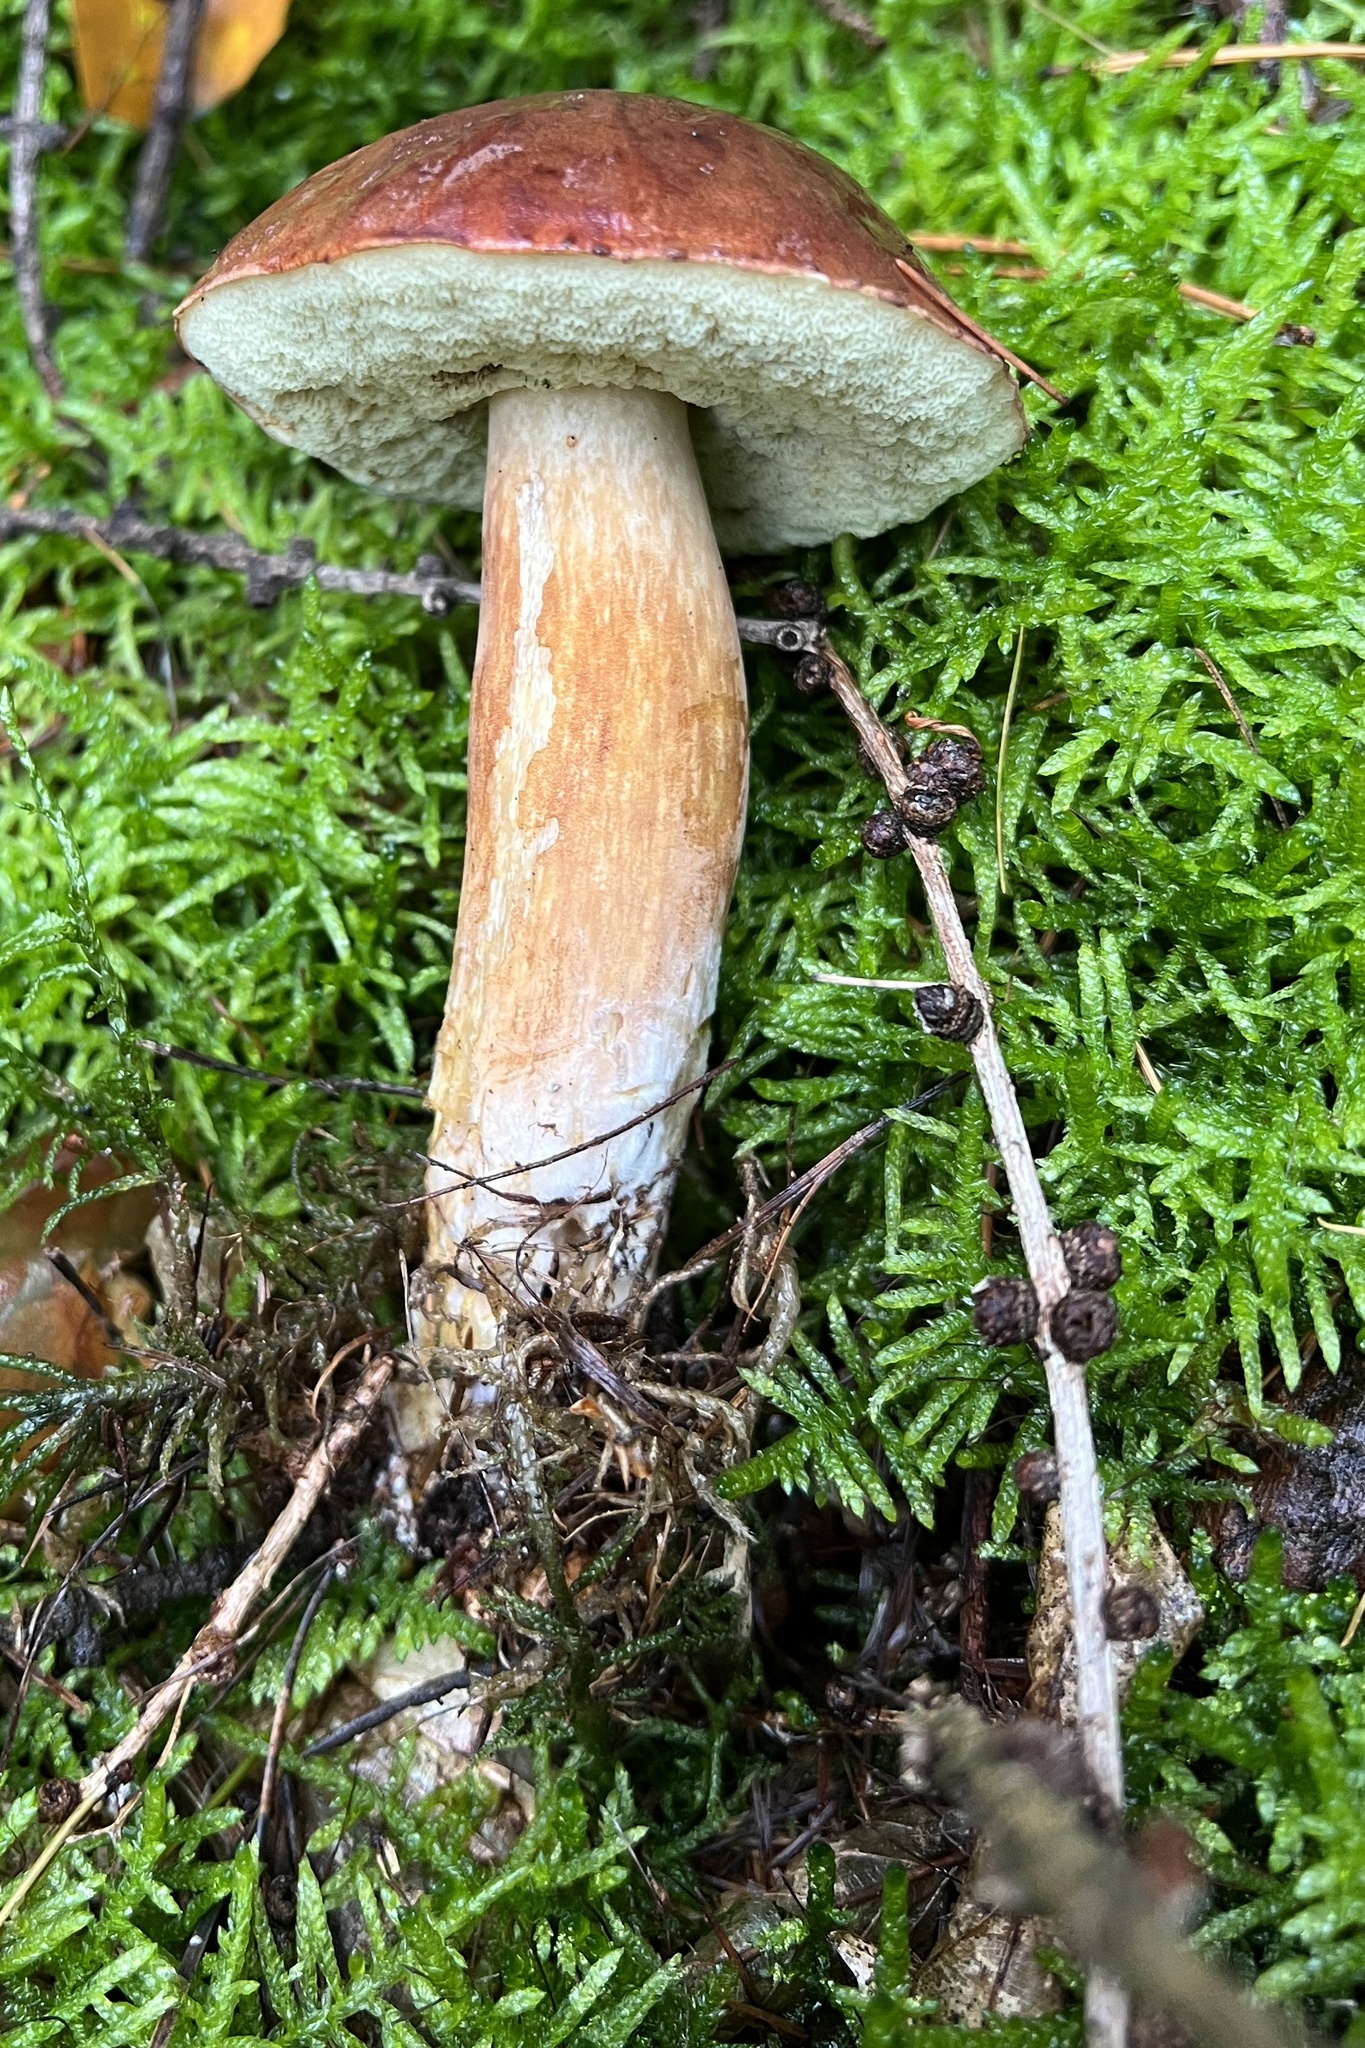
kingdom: Fungi
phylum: Basidiomycota
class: Agaricomycetes
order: Boletales
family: Boletaceae
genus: Imleria
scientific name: Imleria badia
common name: Bay bolete
